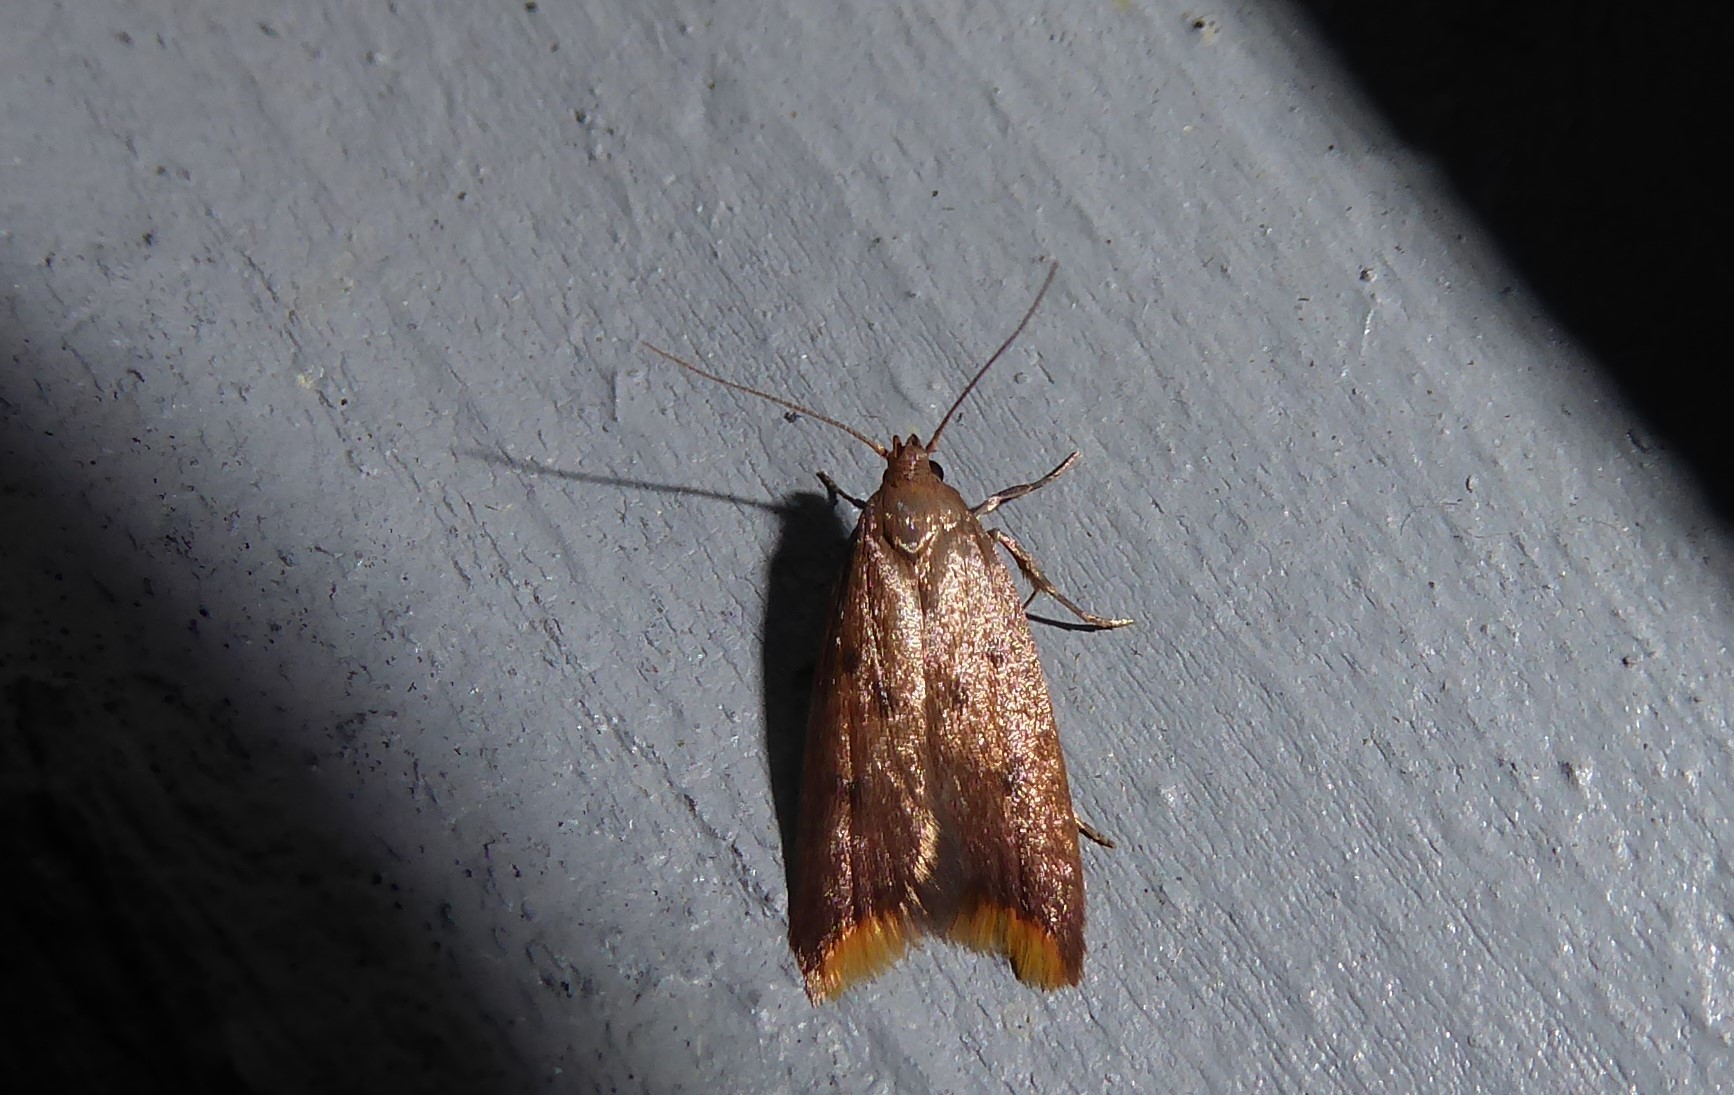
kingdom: Animalia
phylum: Arthropoda
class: Insecta
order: Lepidoptera
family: Oecophoridae
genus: Tachystola
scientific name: Tachystola acroxantha
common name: Ruddy streak
